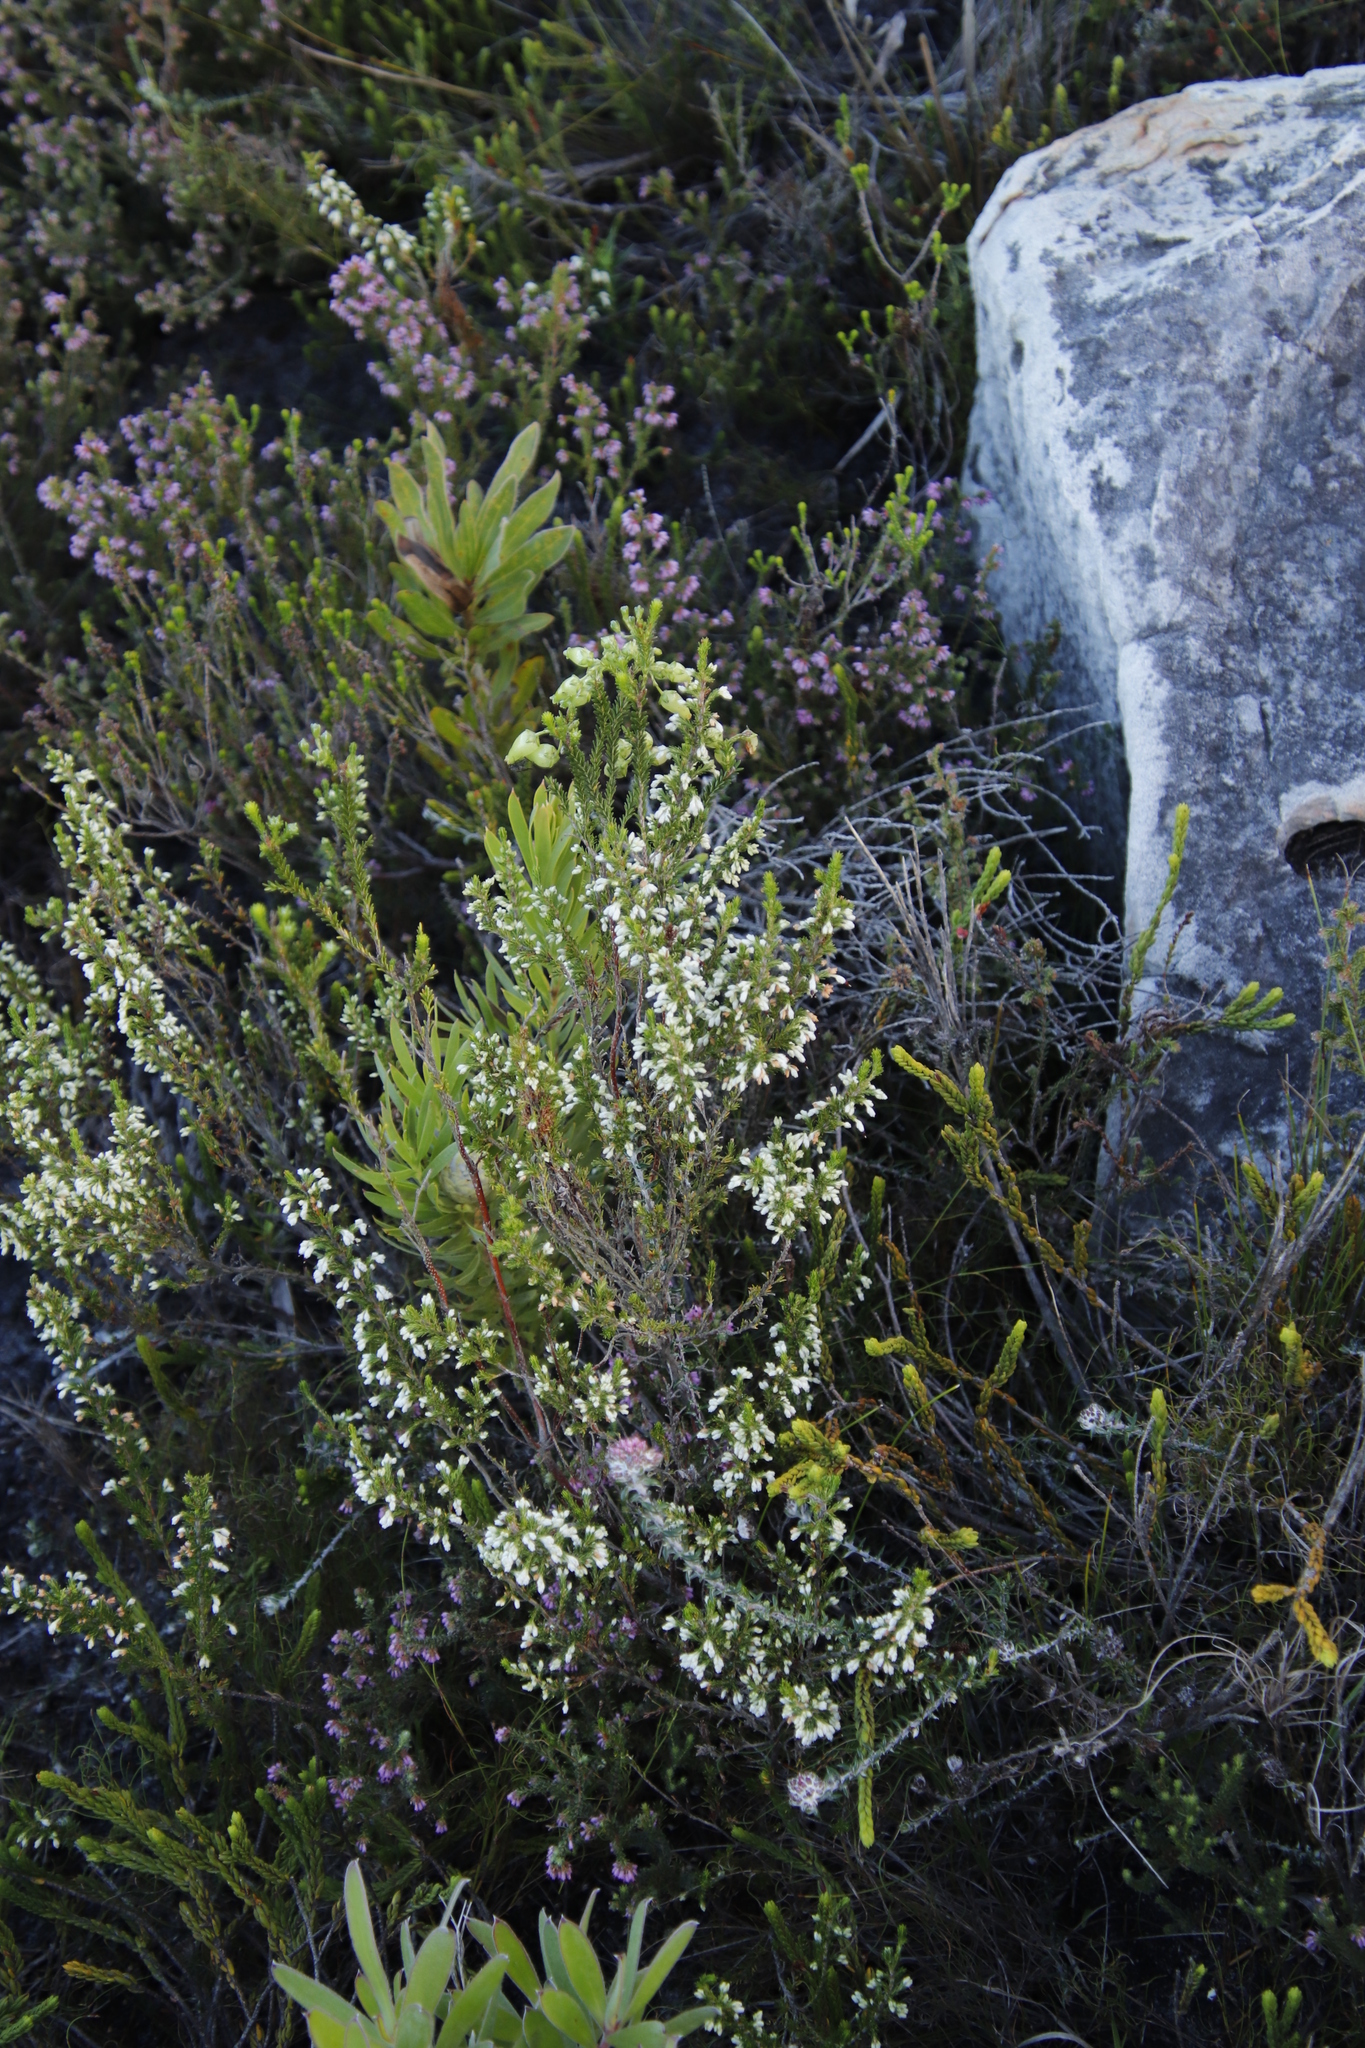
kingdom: Plantae
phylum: Tracheophyta
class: Magnoliopsida
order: Ericales
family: Ericaceae
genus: Erica
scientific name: Erica imbricata
